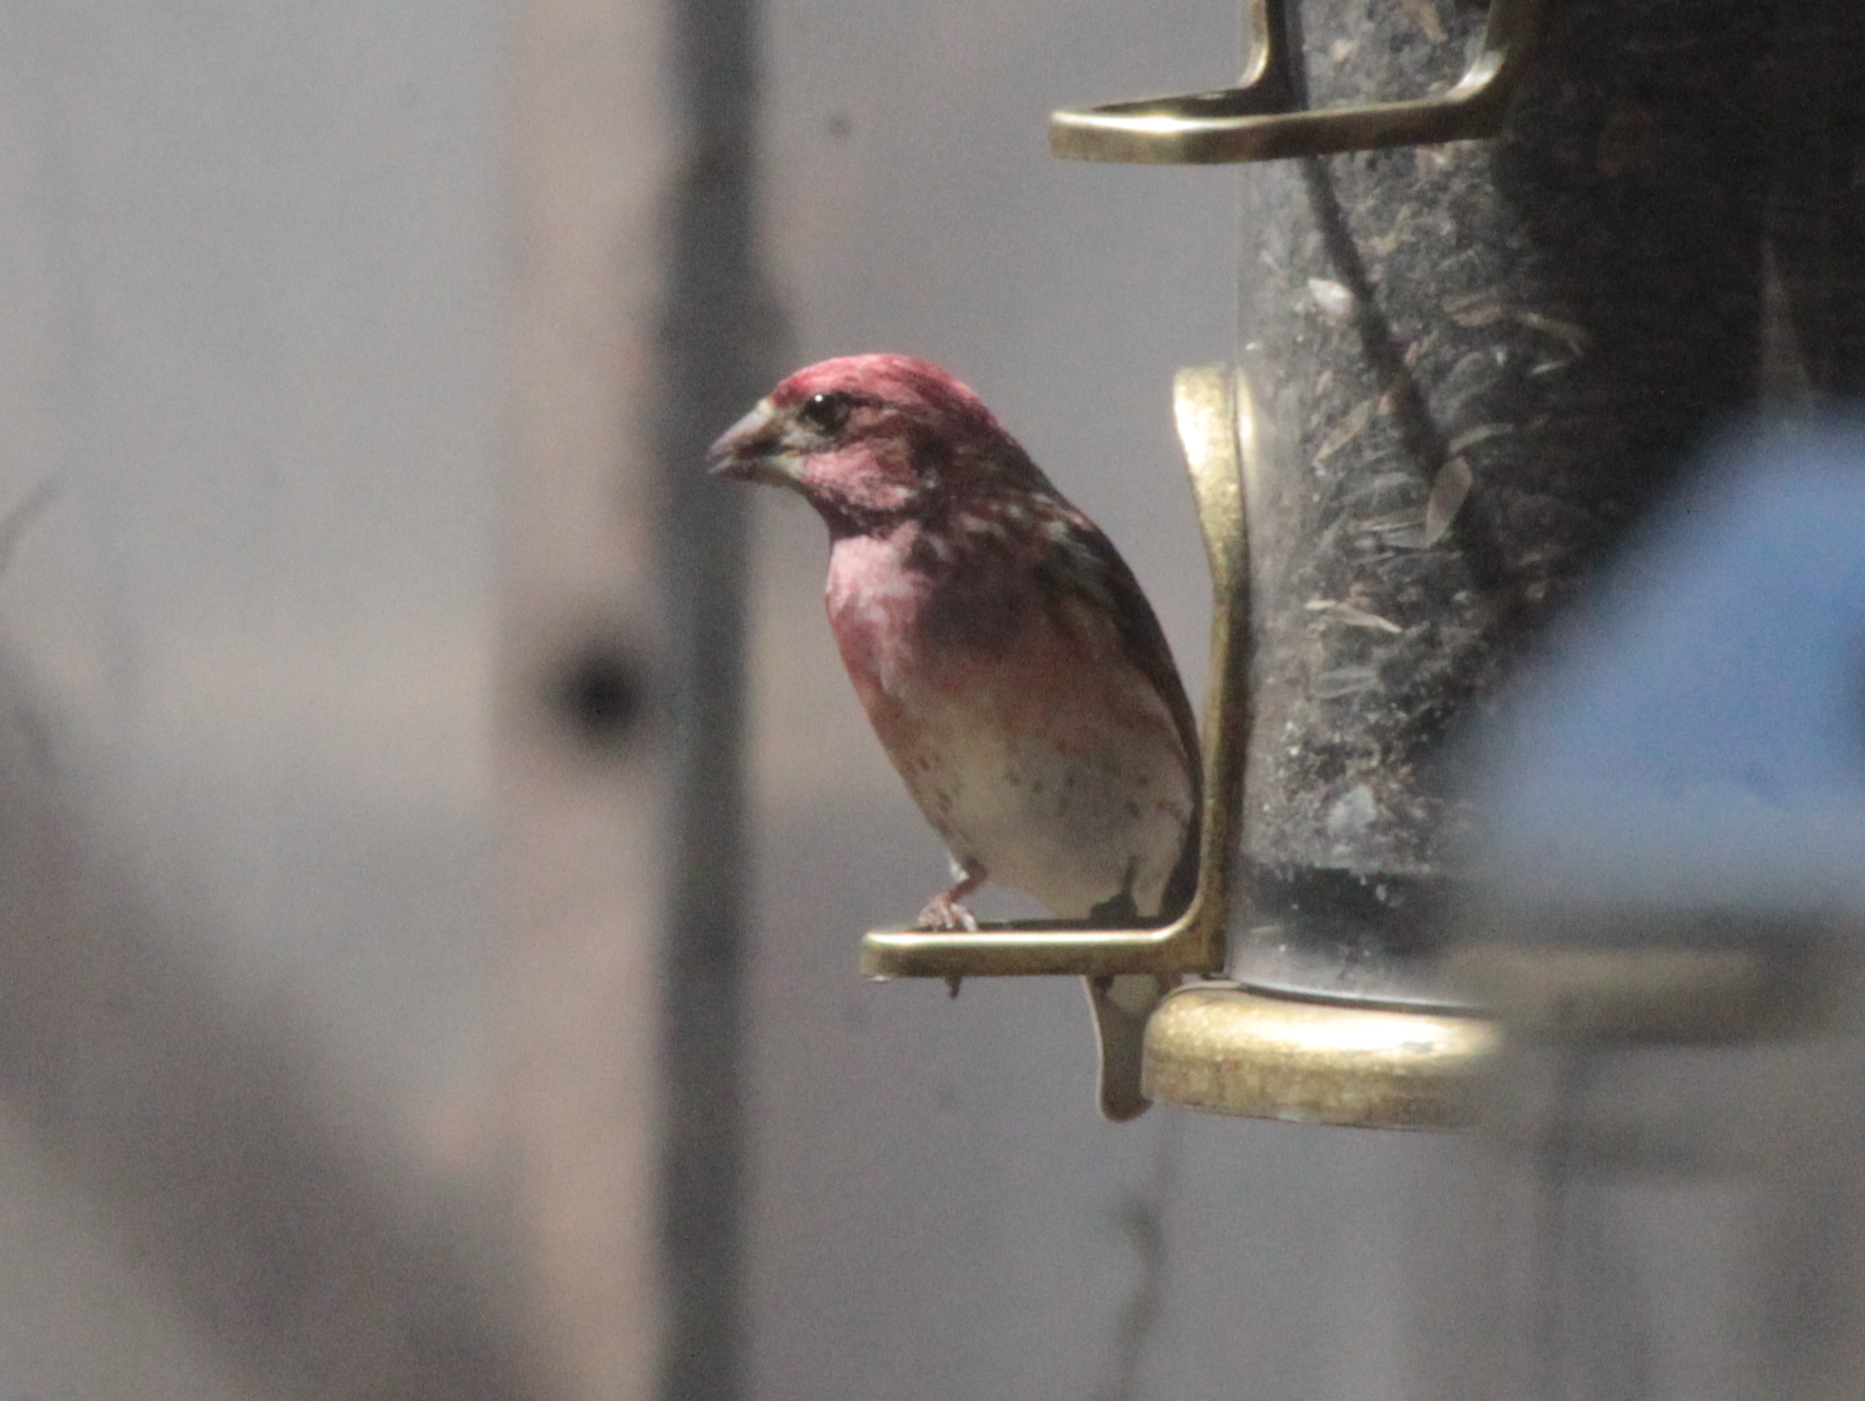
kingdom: Animalia
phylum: Chordata
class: Aves
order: Passeriformes
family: Fringillidae
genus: Haemorhous
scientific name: Haemorhous purpureus
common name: Purple finch
